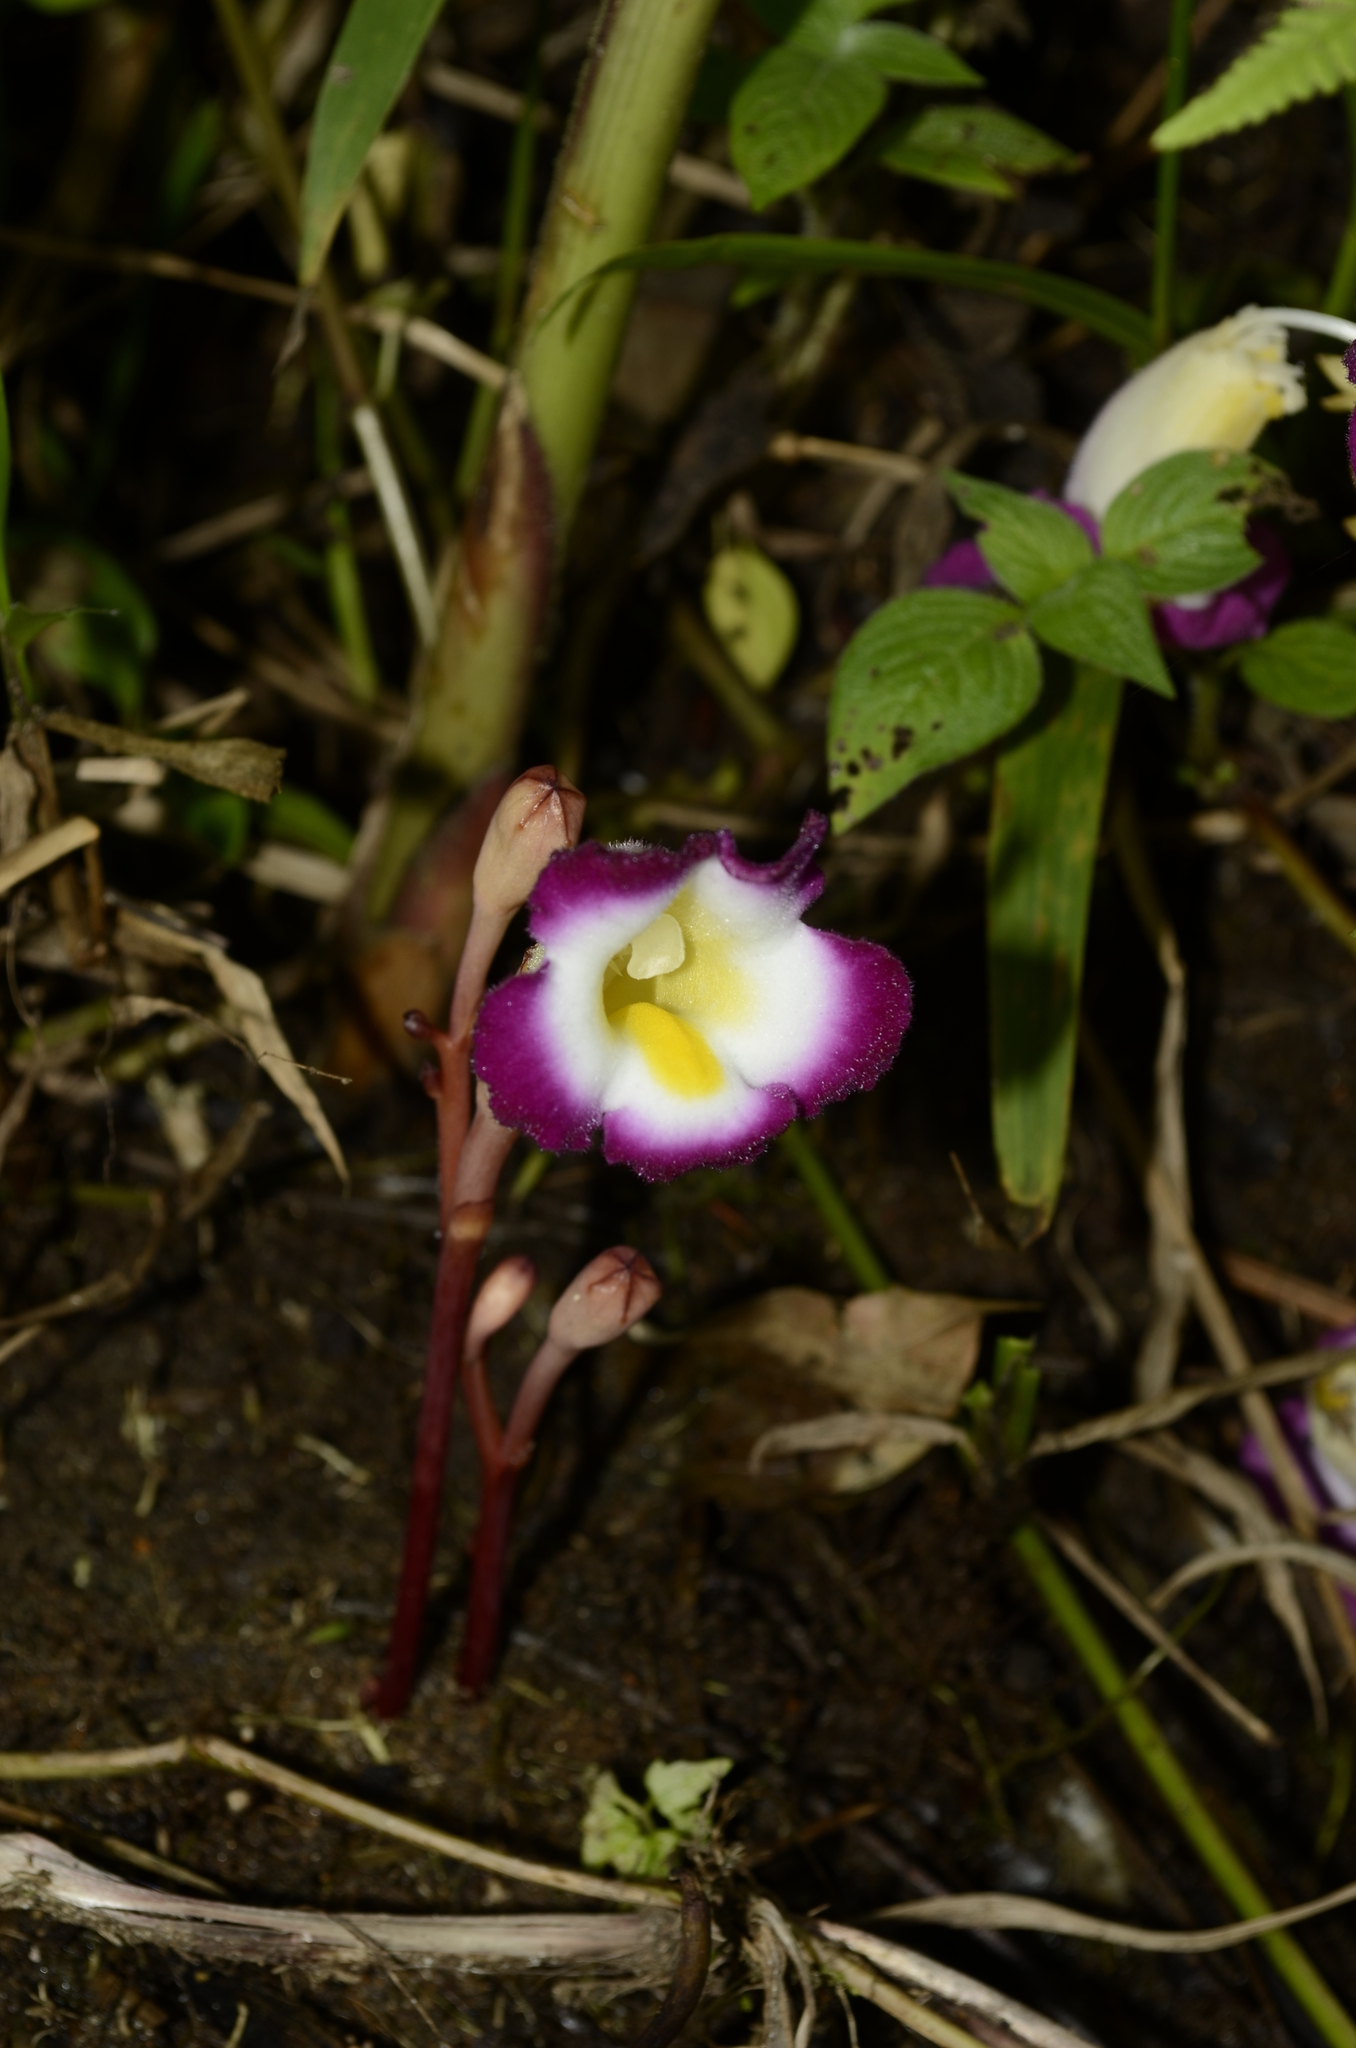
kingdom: Plantae
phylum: Tracheophyta
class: Magnoliopsida
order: Lamiales
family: Orobanchaceae
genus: Christisonia
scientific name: Christisonia tubulosa
